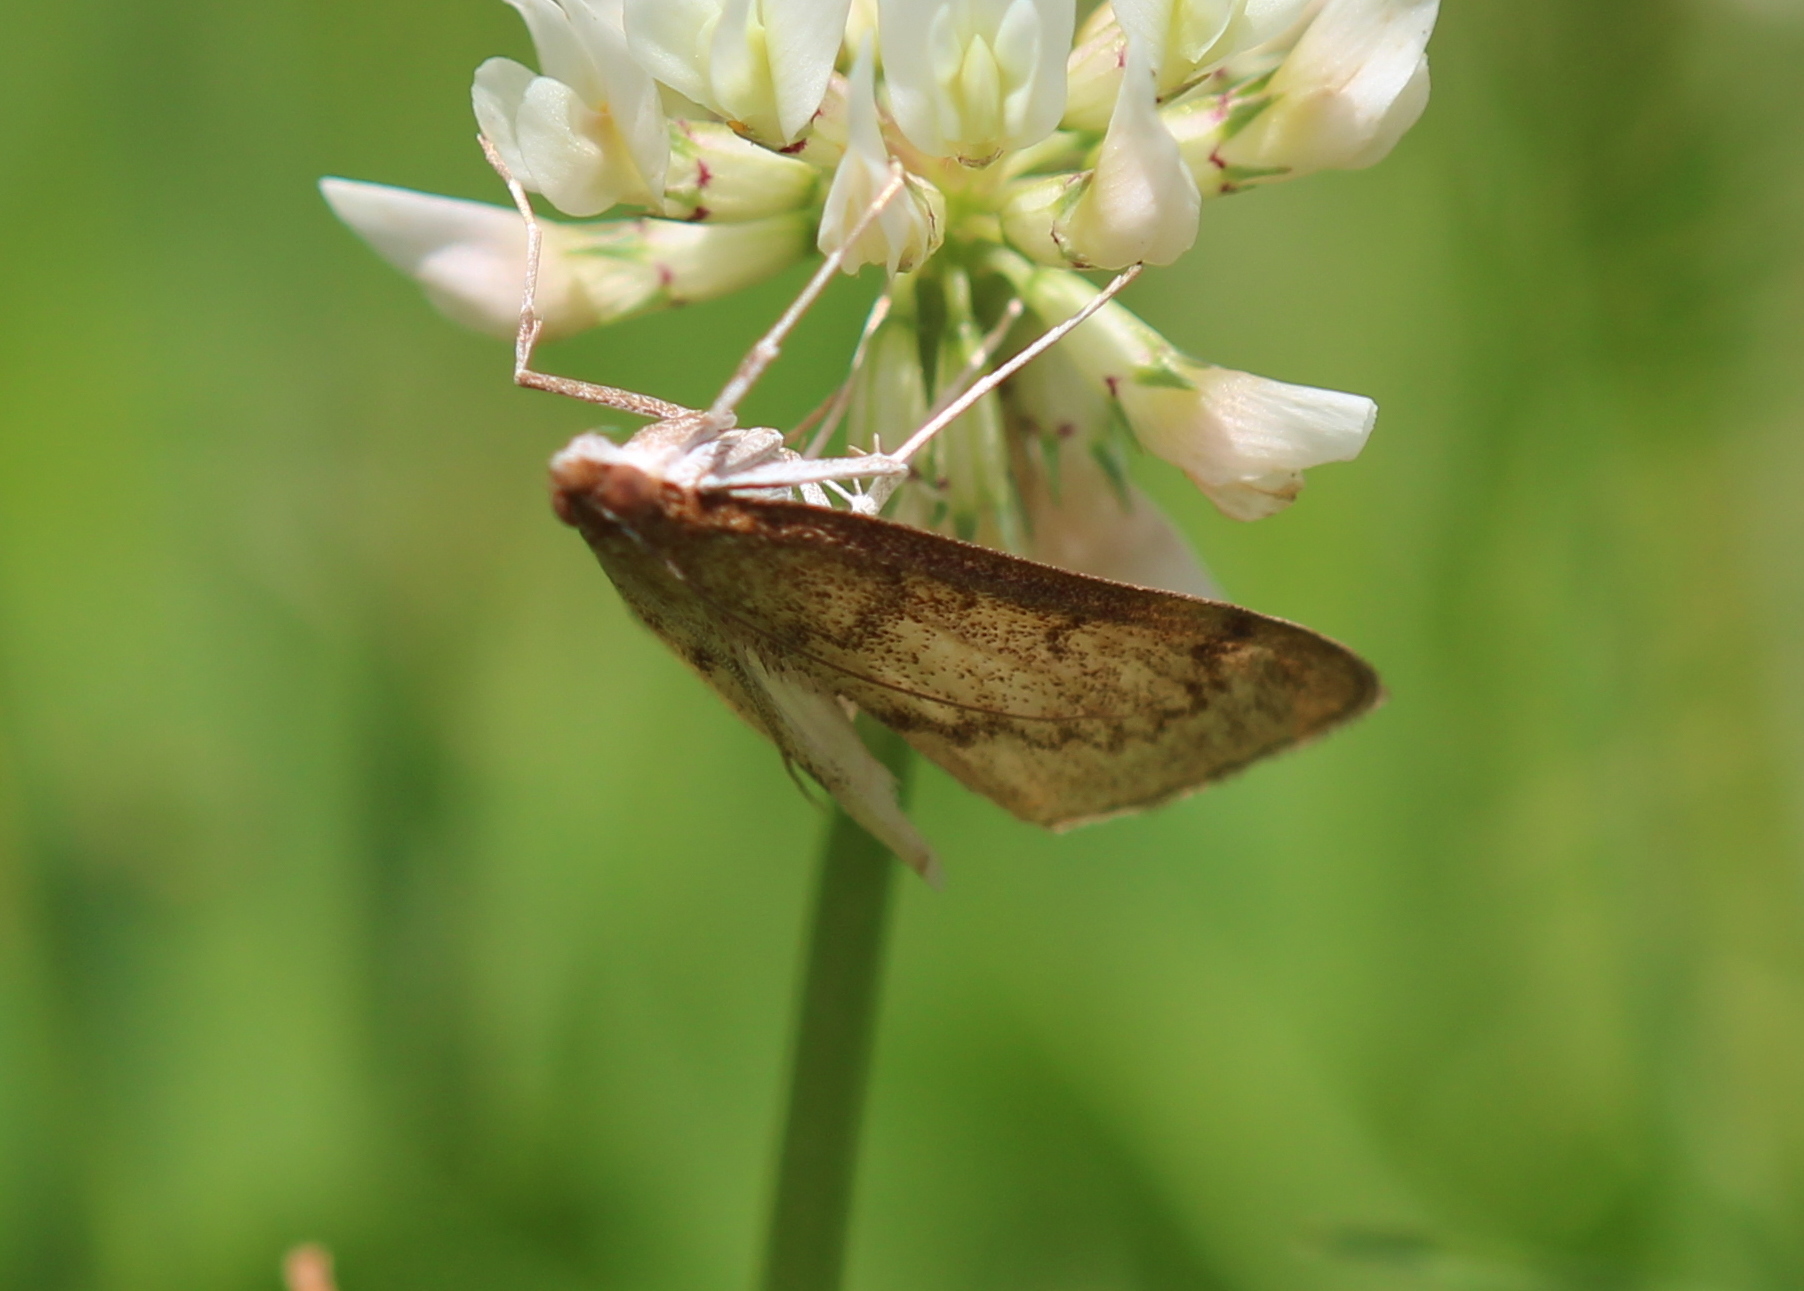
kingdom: Animalia
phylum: Arthropoda
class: Insecta
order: Lepidoptera
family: Crambidae
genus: Saucrobotys
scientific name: Saucrobotys futilalis
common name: Dogbane saucrobotys moth
